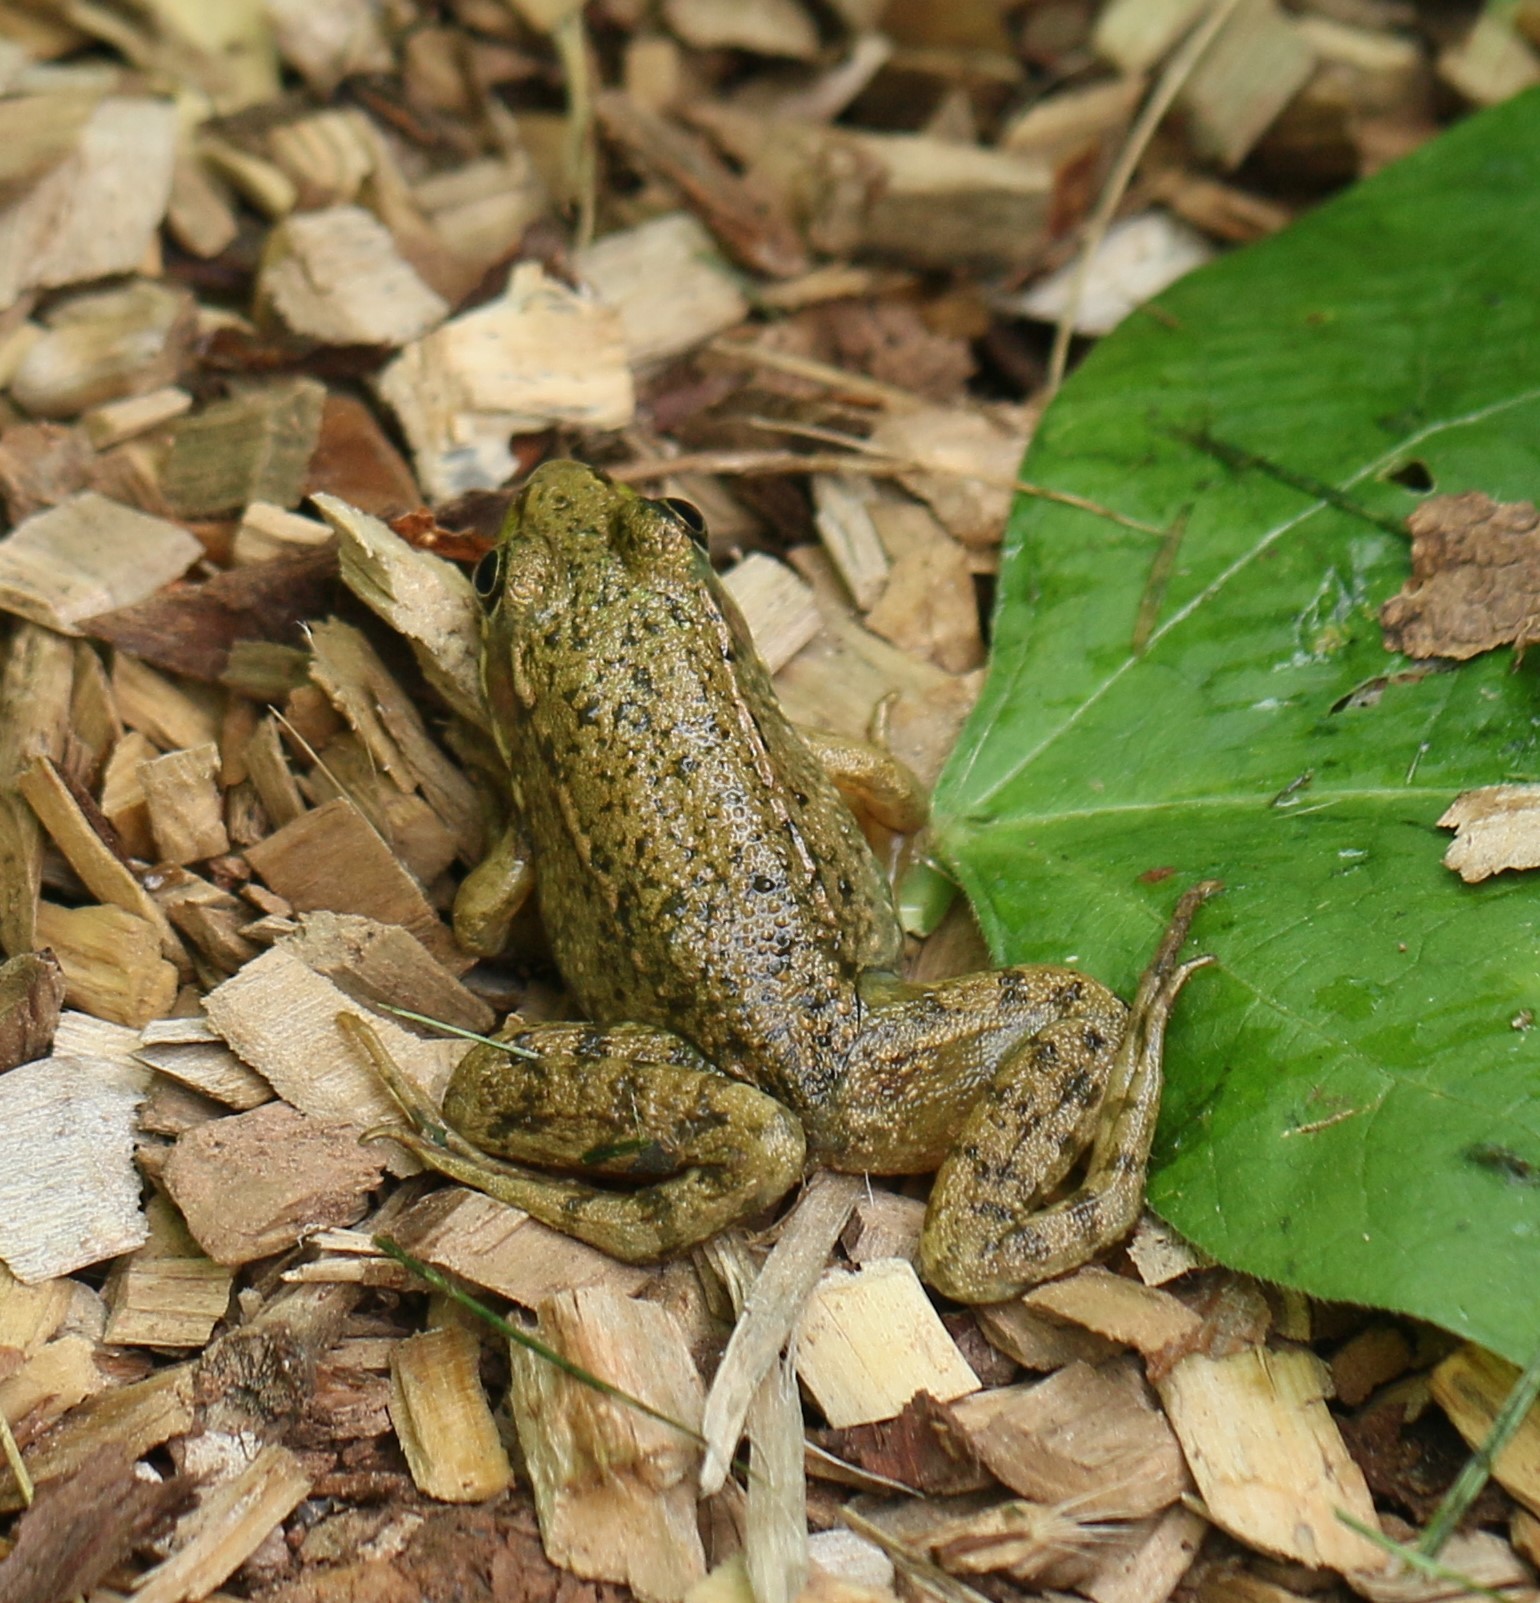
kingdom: Animalia
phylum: Chordata
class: Amphibia
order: Anura
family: Ranidae
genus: Lithobates
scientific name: Lithobates clamitans
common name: Green frog
